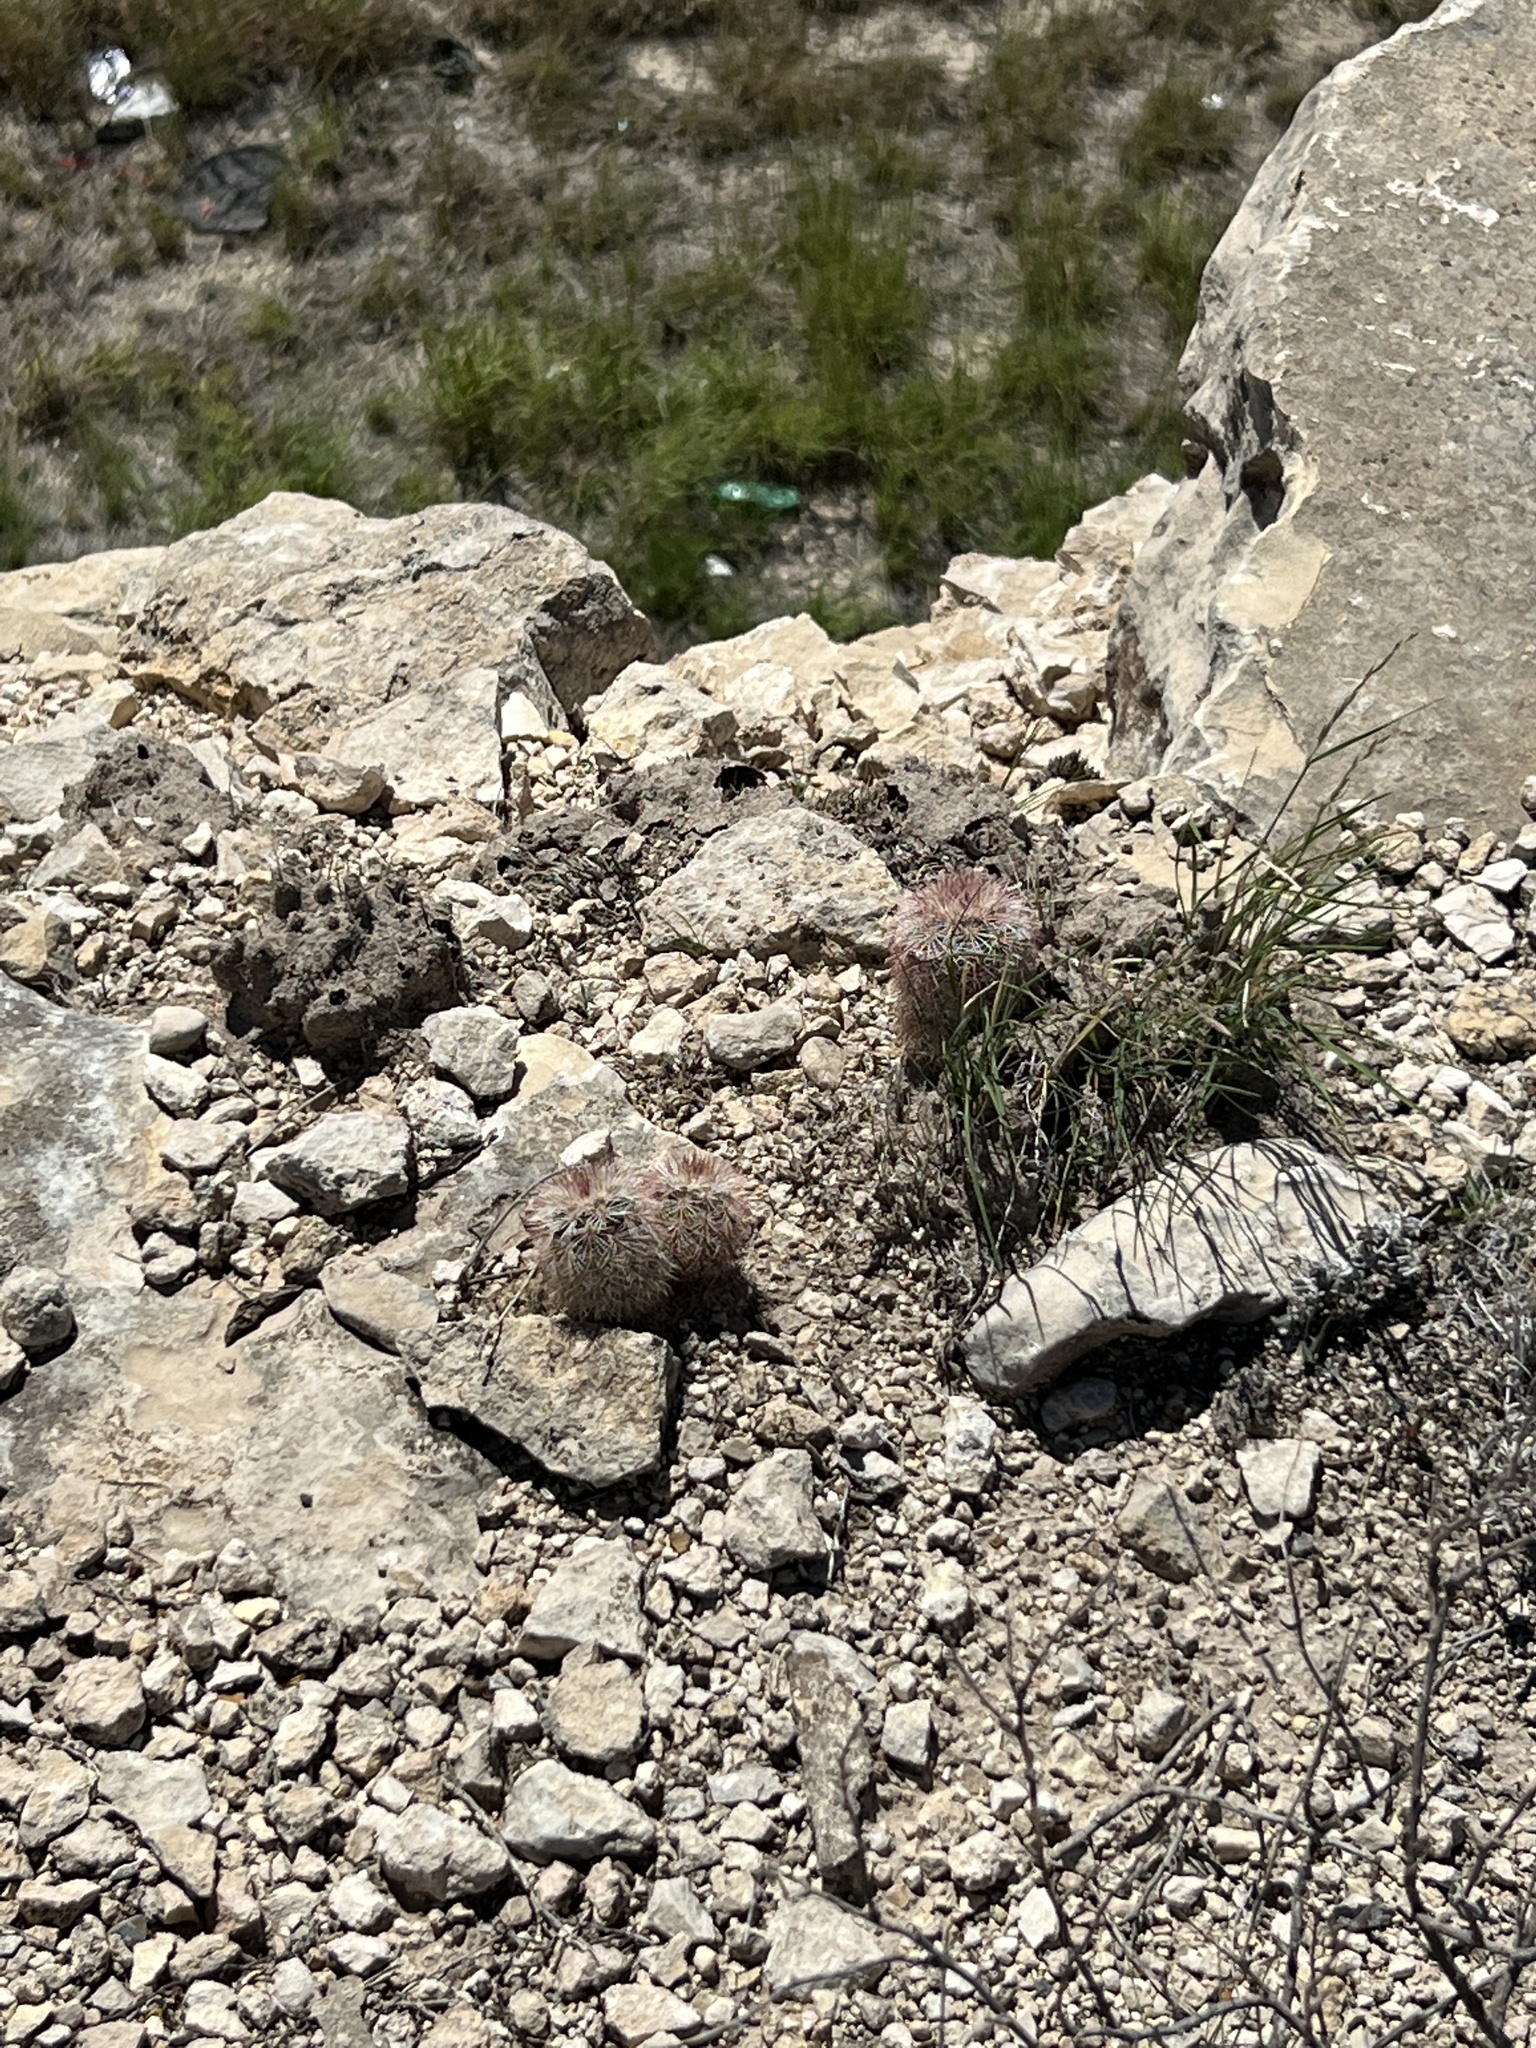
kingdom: Plantae
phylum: Tracheophyta
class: Magnoliopsida
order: Caryophyllales
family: Cactaceae
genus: Echinocereus
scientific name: Echinocereus dasyacanthus
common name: Spiny hedgehog cactus
